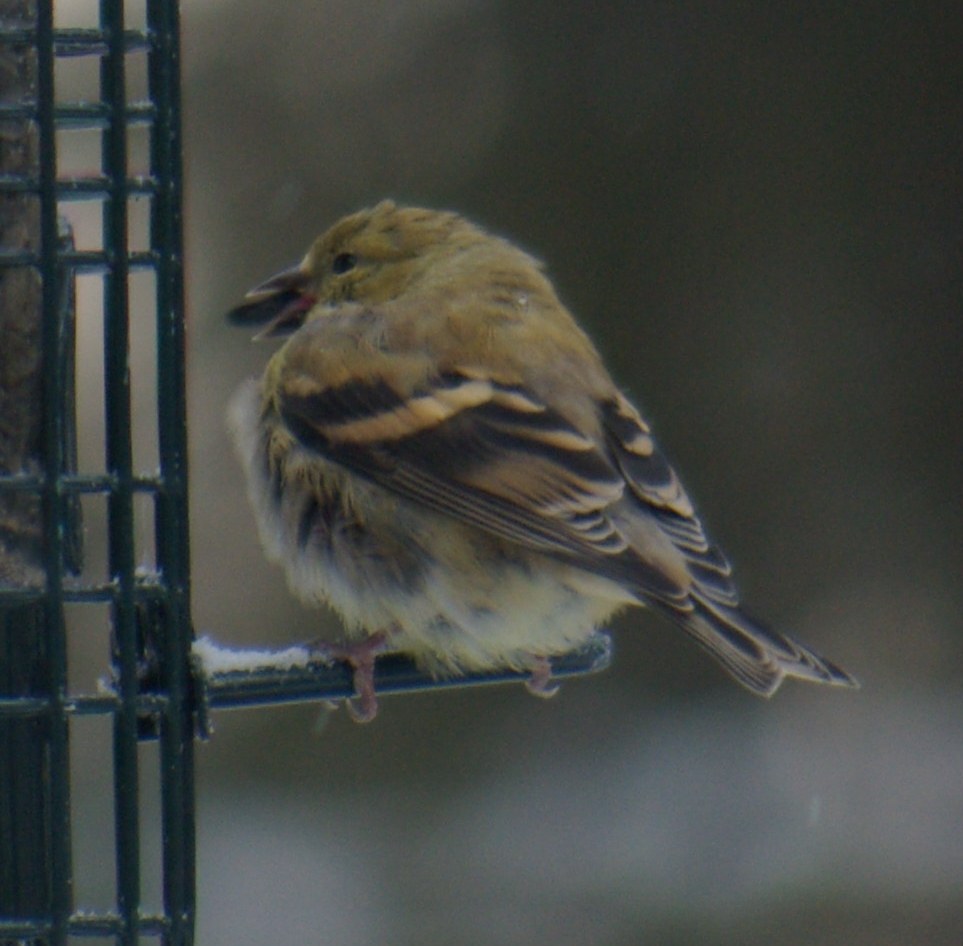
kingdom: Animalia
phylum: Chordata
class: Aves
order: Passeriformes
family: Fringillidae
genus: Spinus
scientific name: Spinus tristis
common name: American goldfinch
